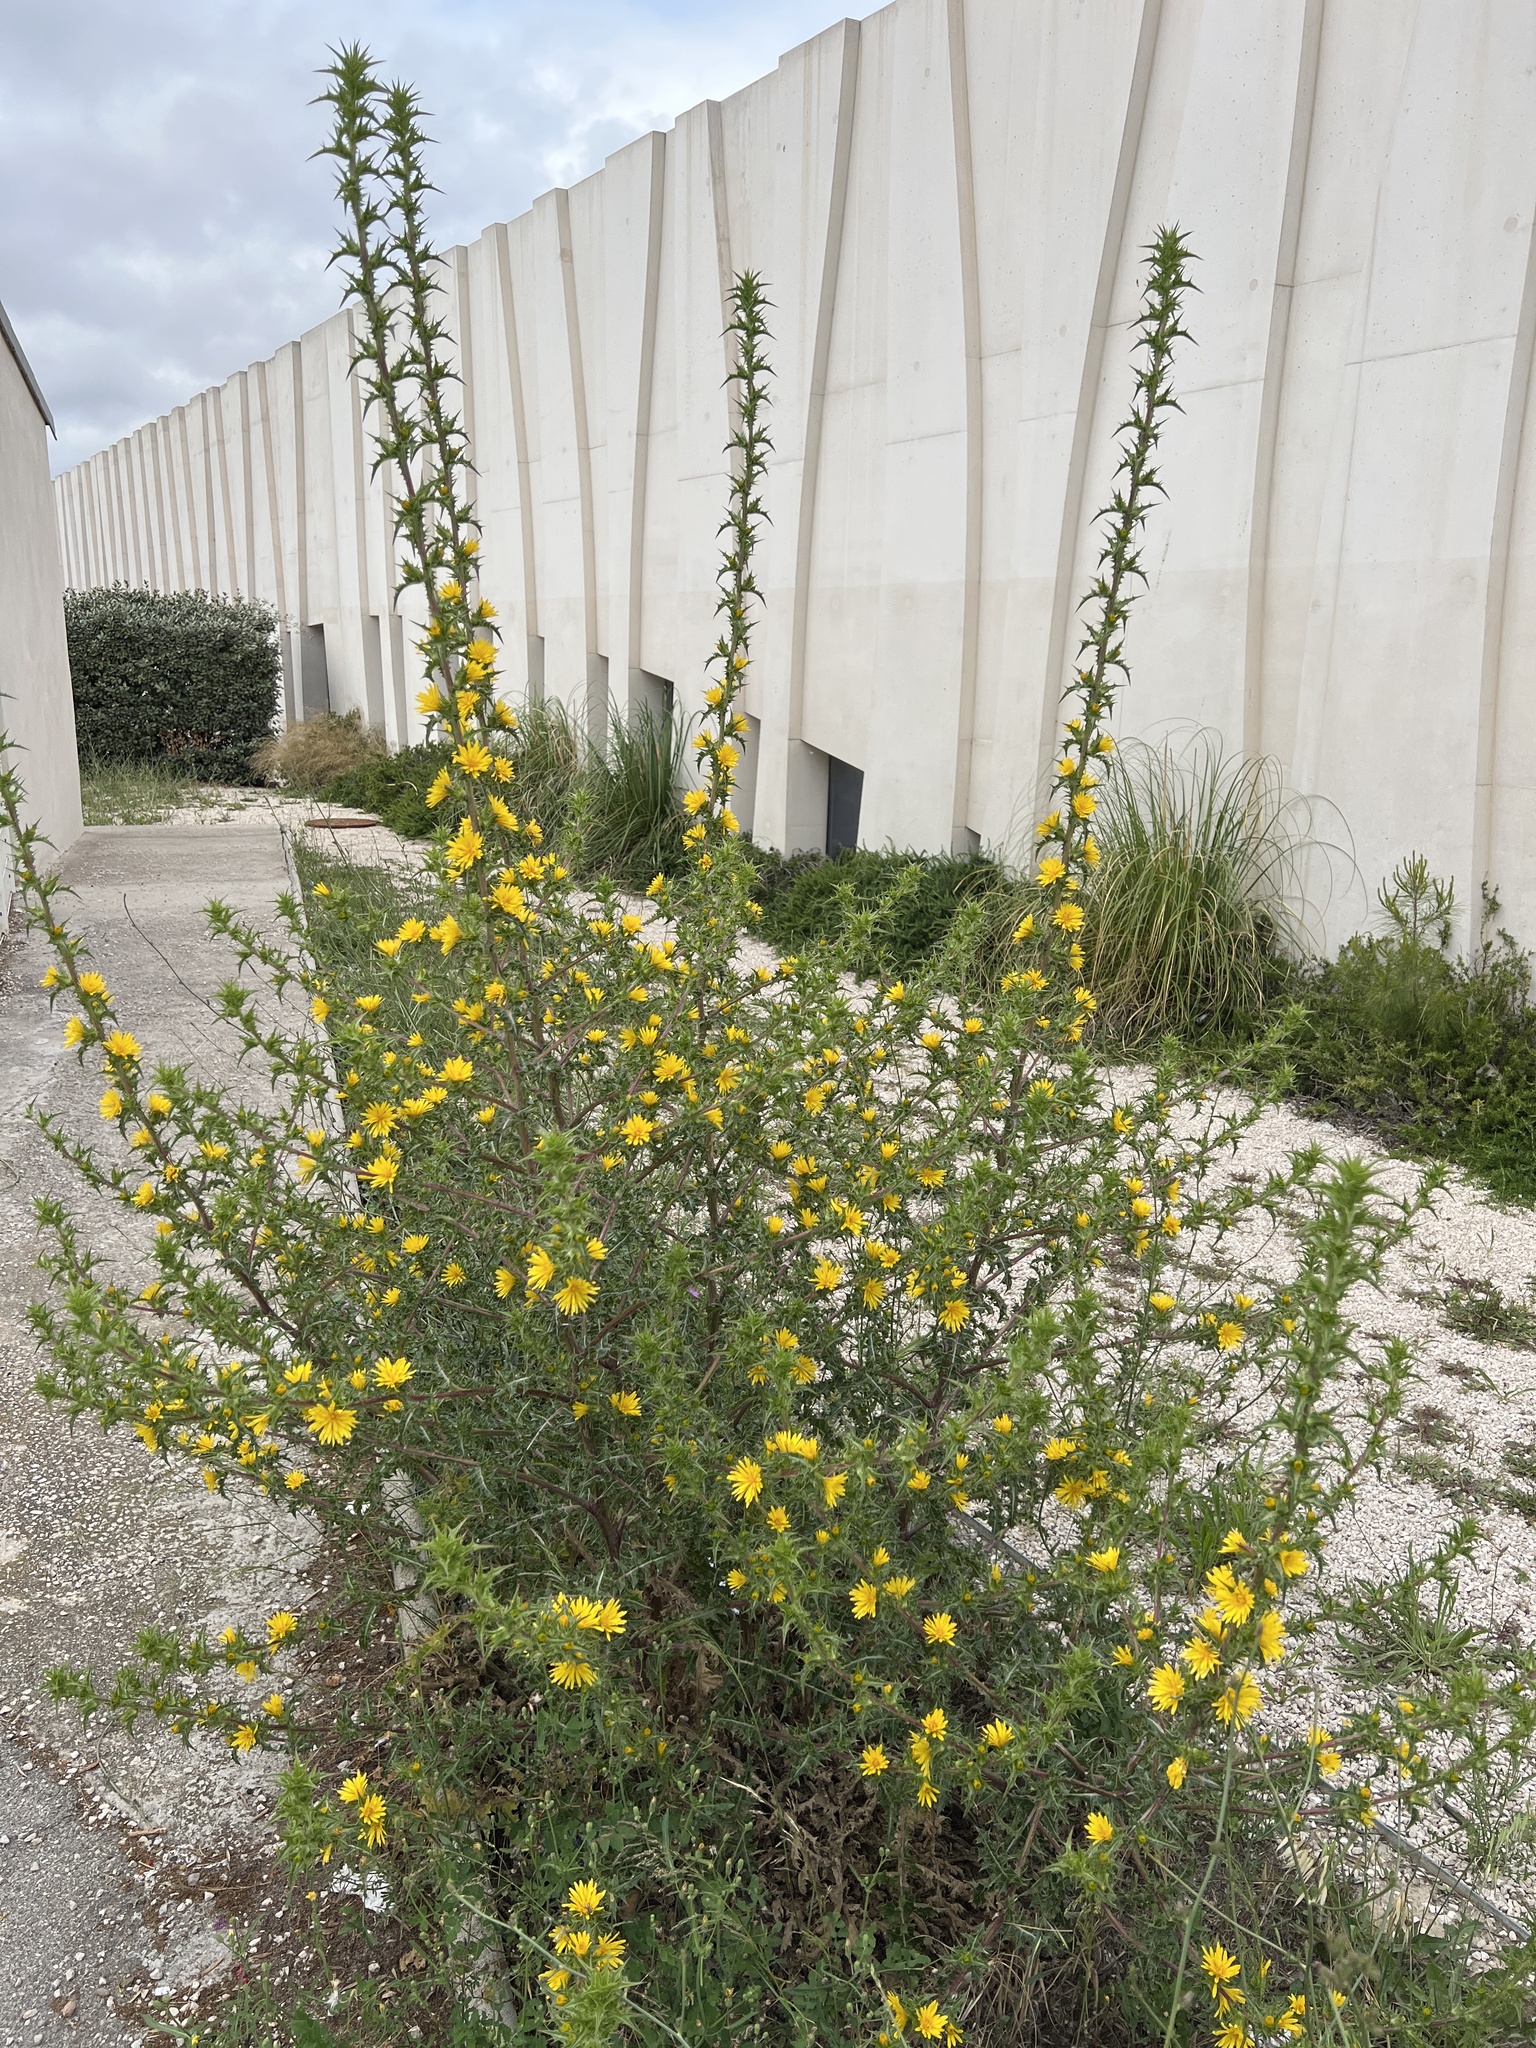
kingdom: Plantae
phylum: Tracheophyta
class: Magnoliopsida
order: Asterales
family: Asteraceae
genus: Scolymus
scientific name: Scolymus hispanicus
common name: Golden thistle
